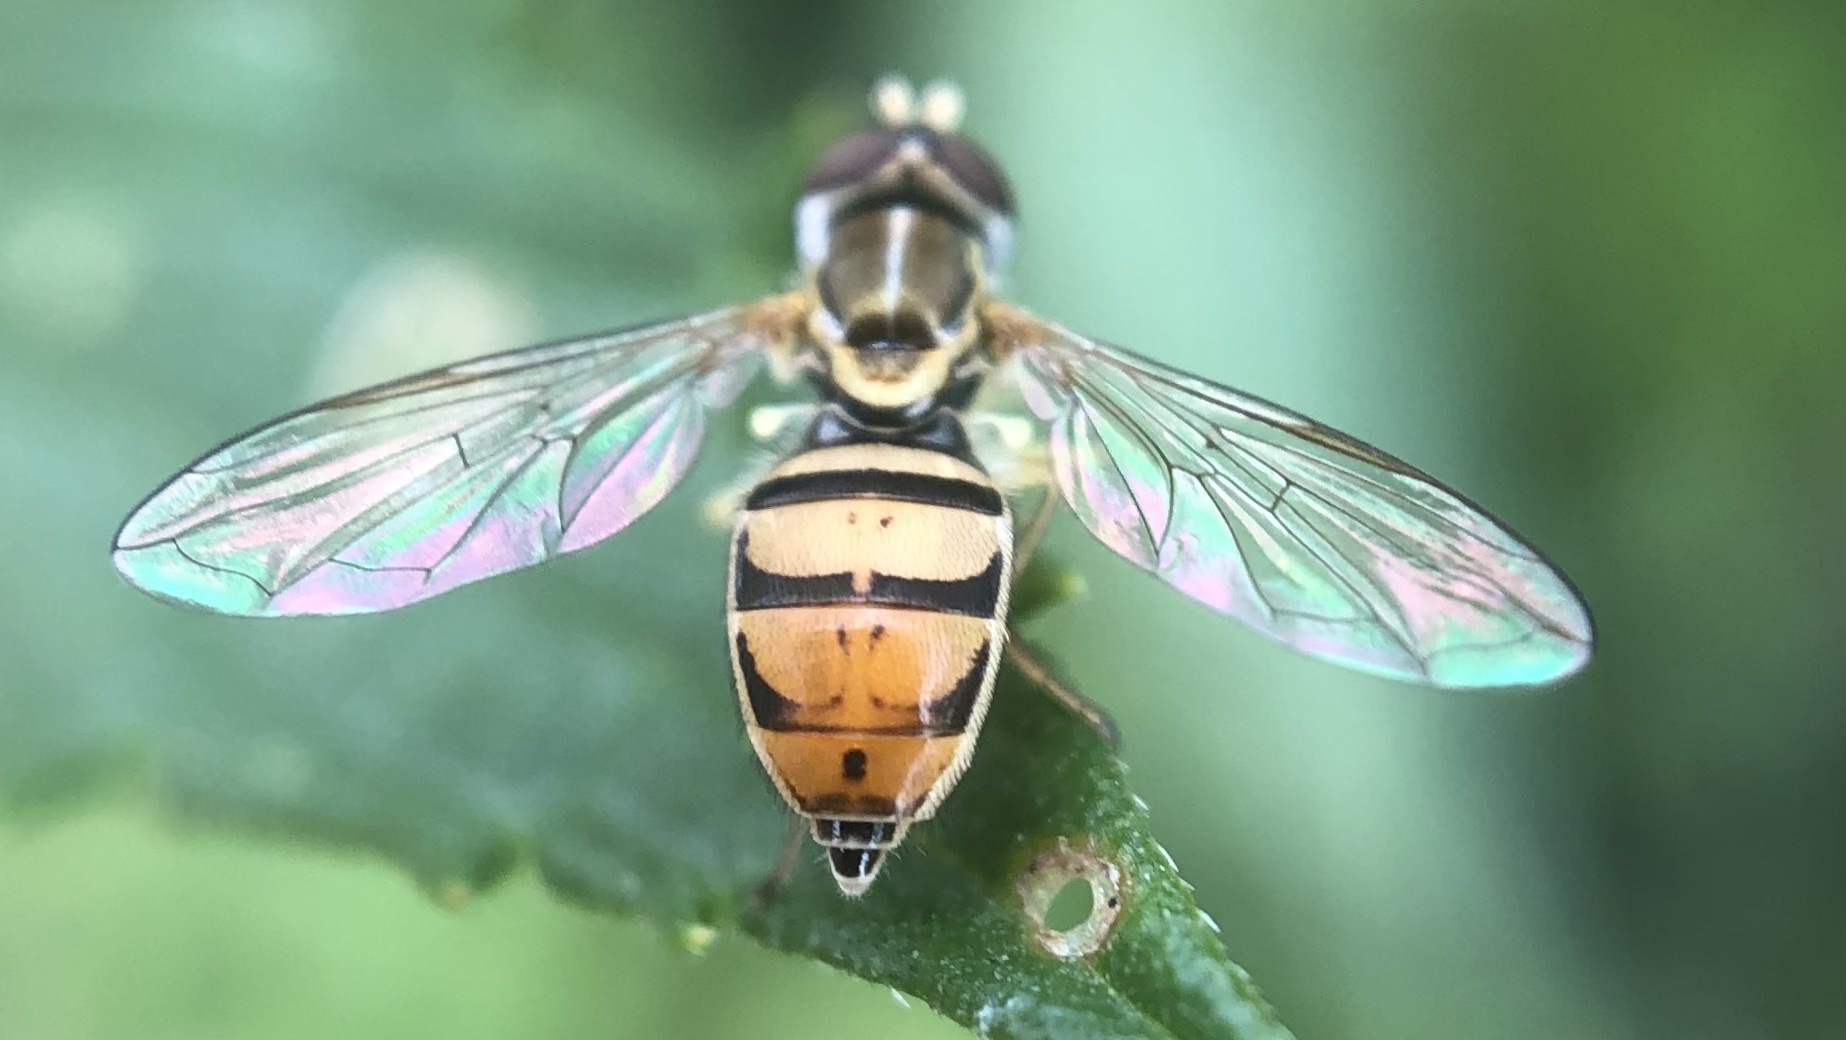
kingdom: Animalia
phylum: Arthropoda
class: Insecta
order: Diptera
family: Syrphidae
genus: Toxomerus
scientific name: Toxomerus marginatus
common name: Syrphid fly
